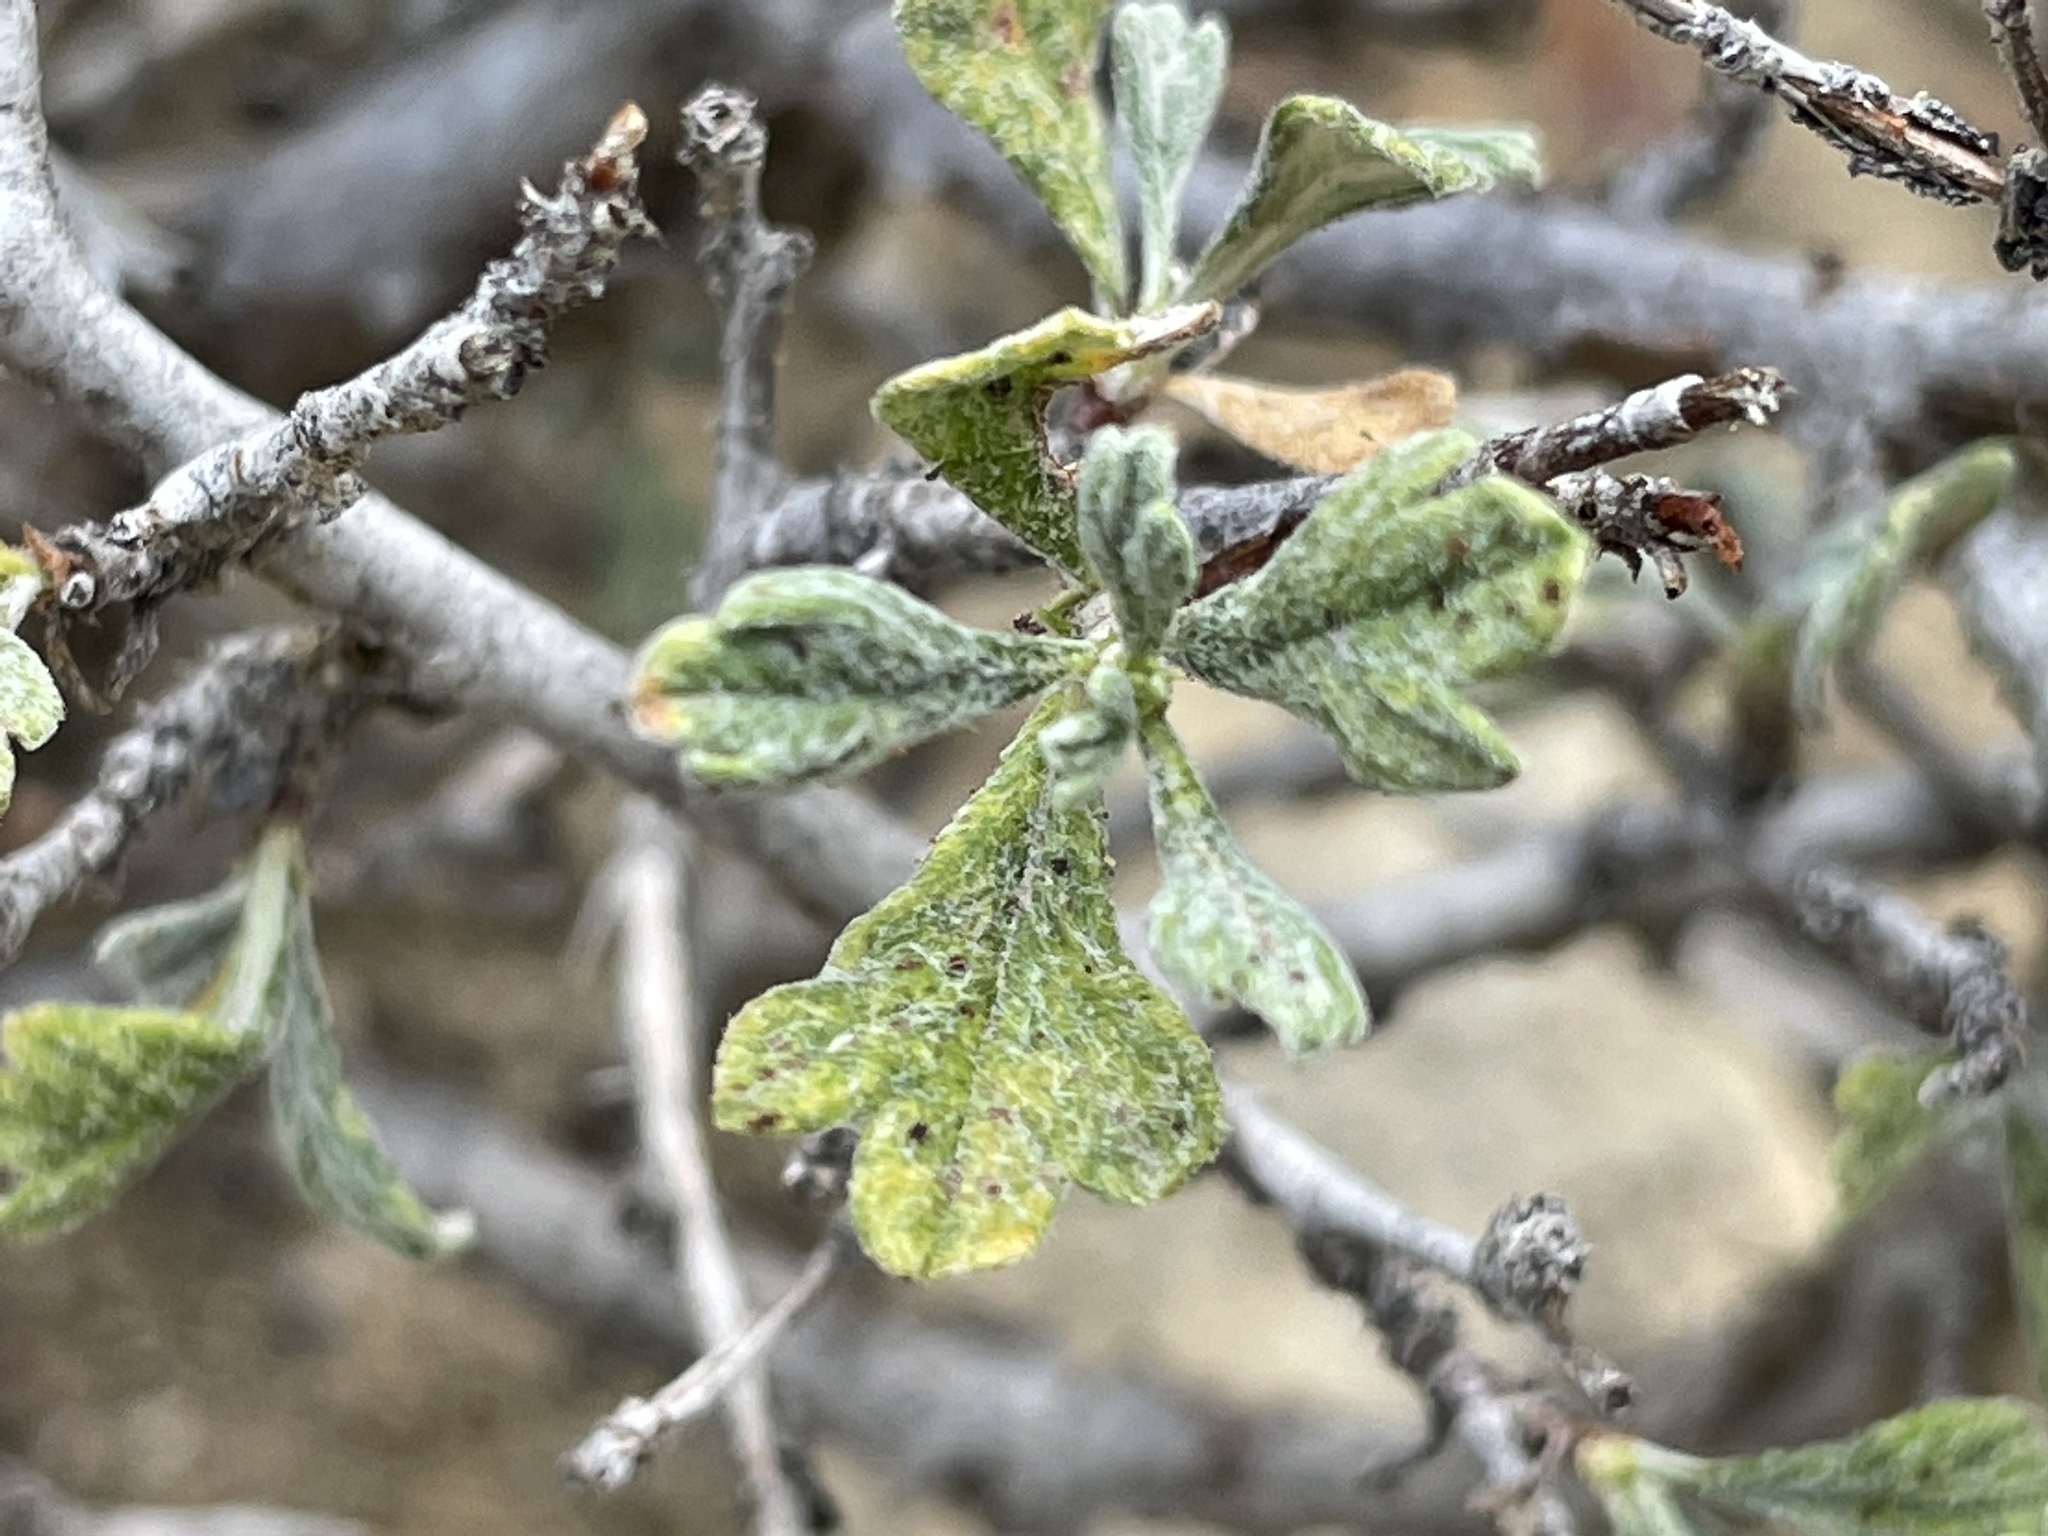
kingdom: Plantae
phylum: Tracheophyta
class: Magnoliopsida
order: Rosales
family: Rosaceae
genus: Purshia
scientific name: Purshia tridentata
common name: Antelope bitterbrush
